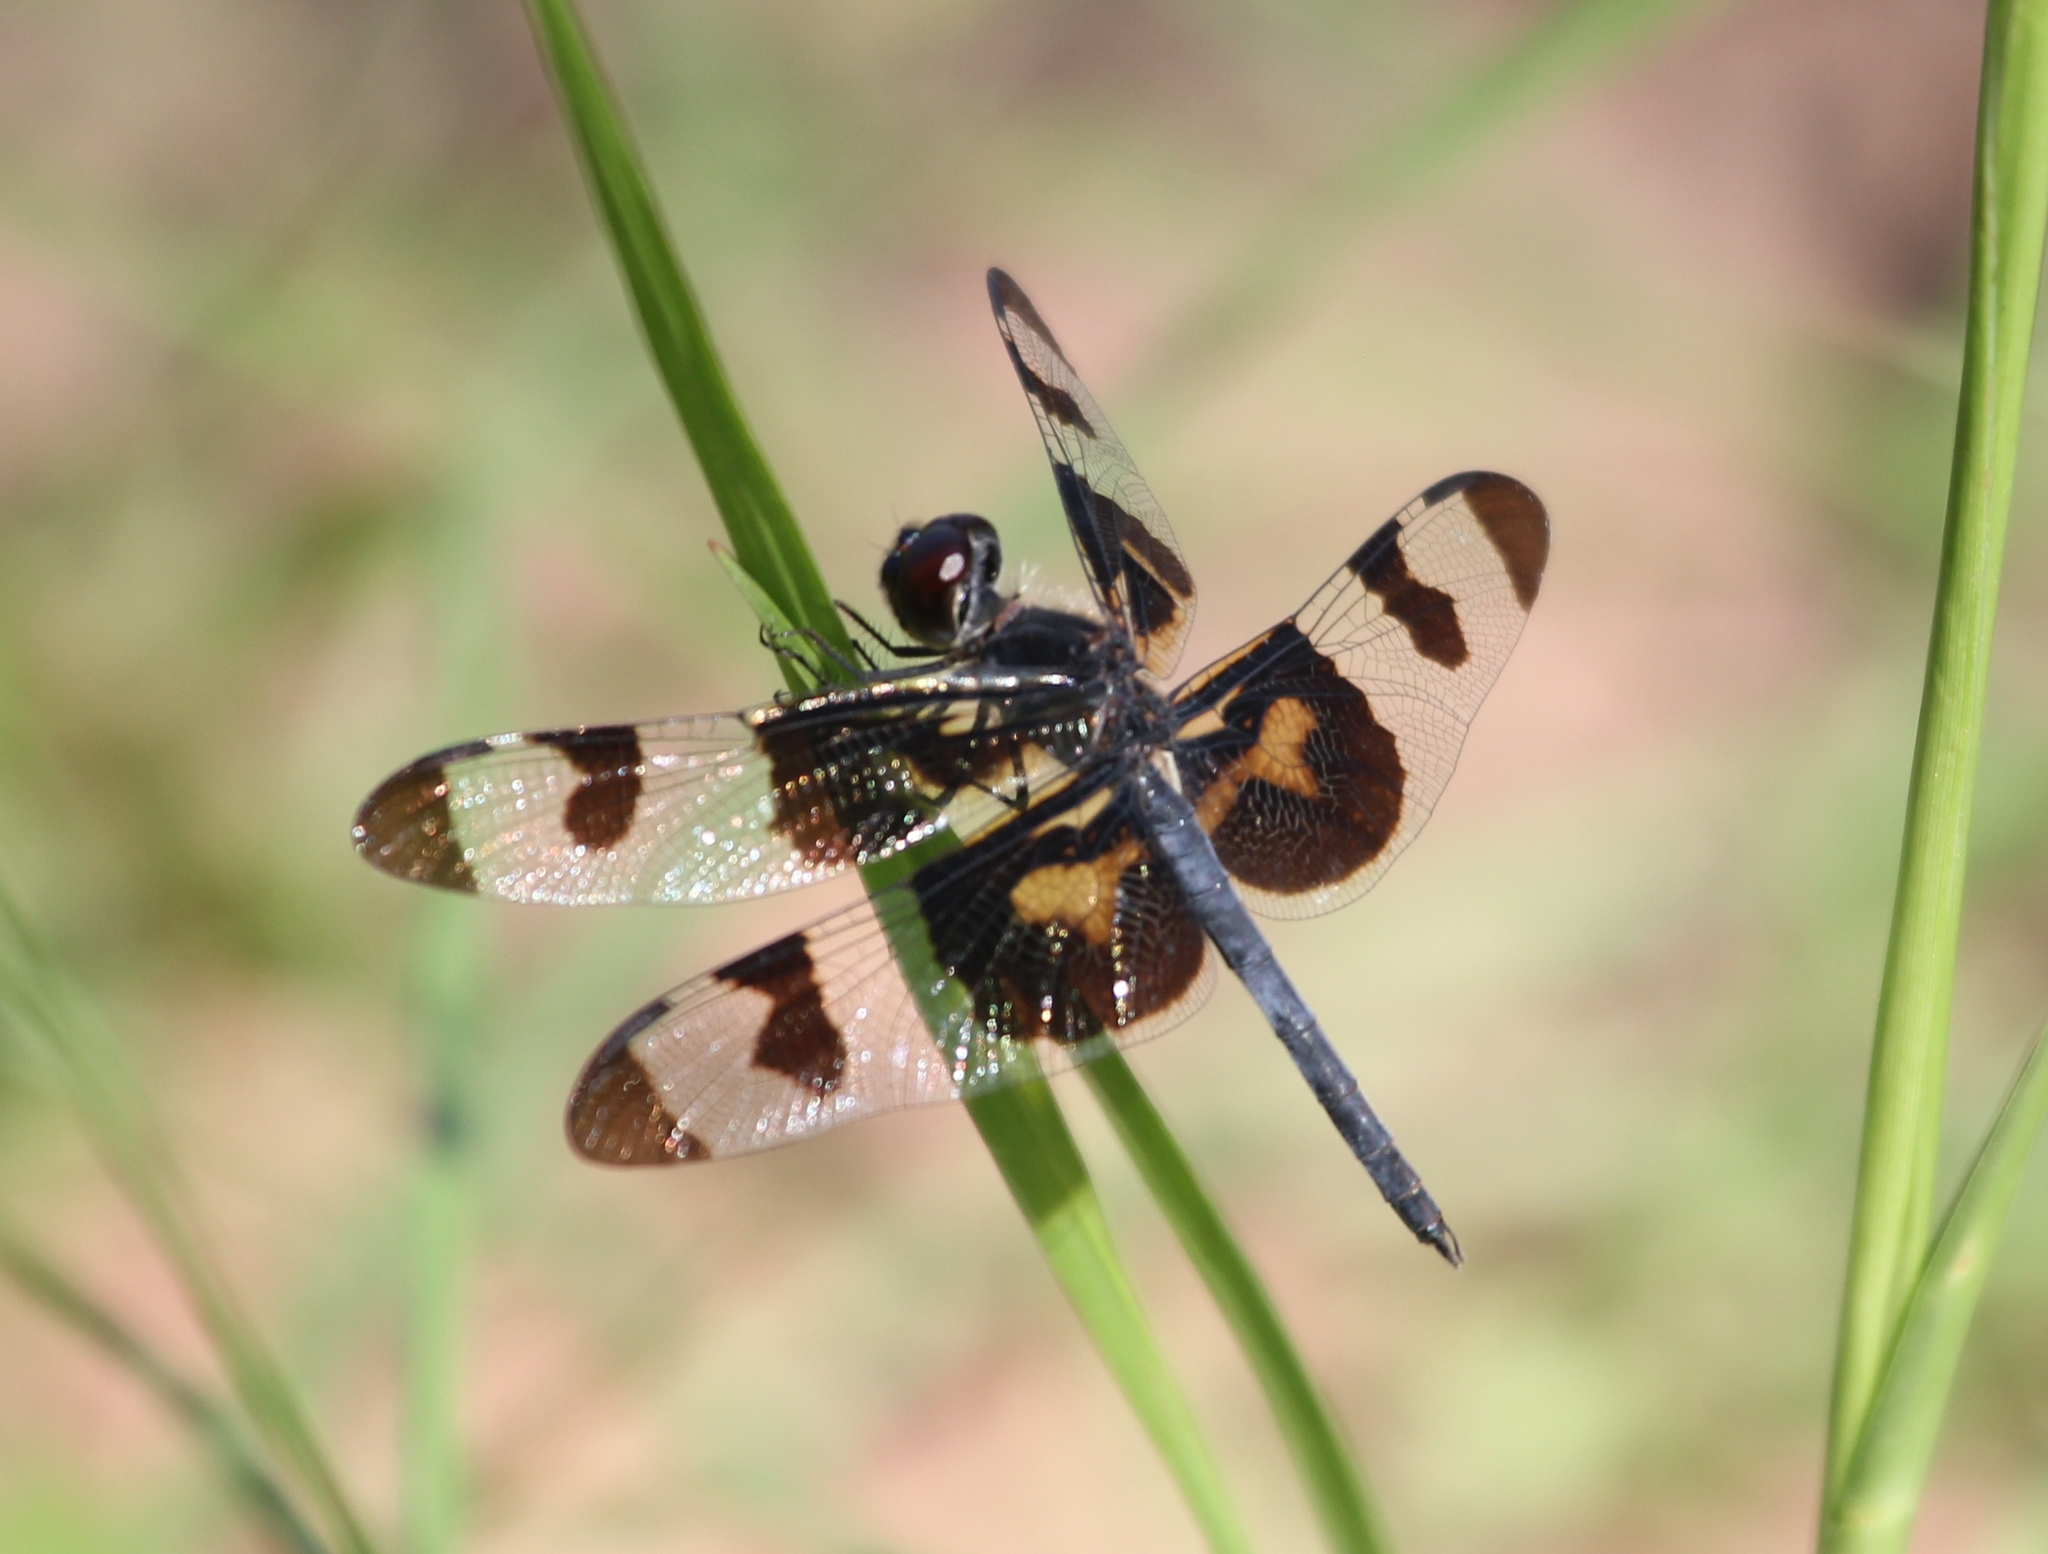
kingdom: Animalia
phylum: Arthropoda
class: Insecta
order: Odonata
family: Libellulidae
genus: Celithemis
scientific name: Celithemis fasciata
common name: Banded pennant
